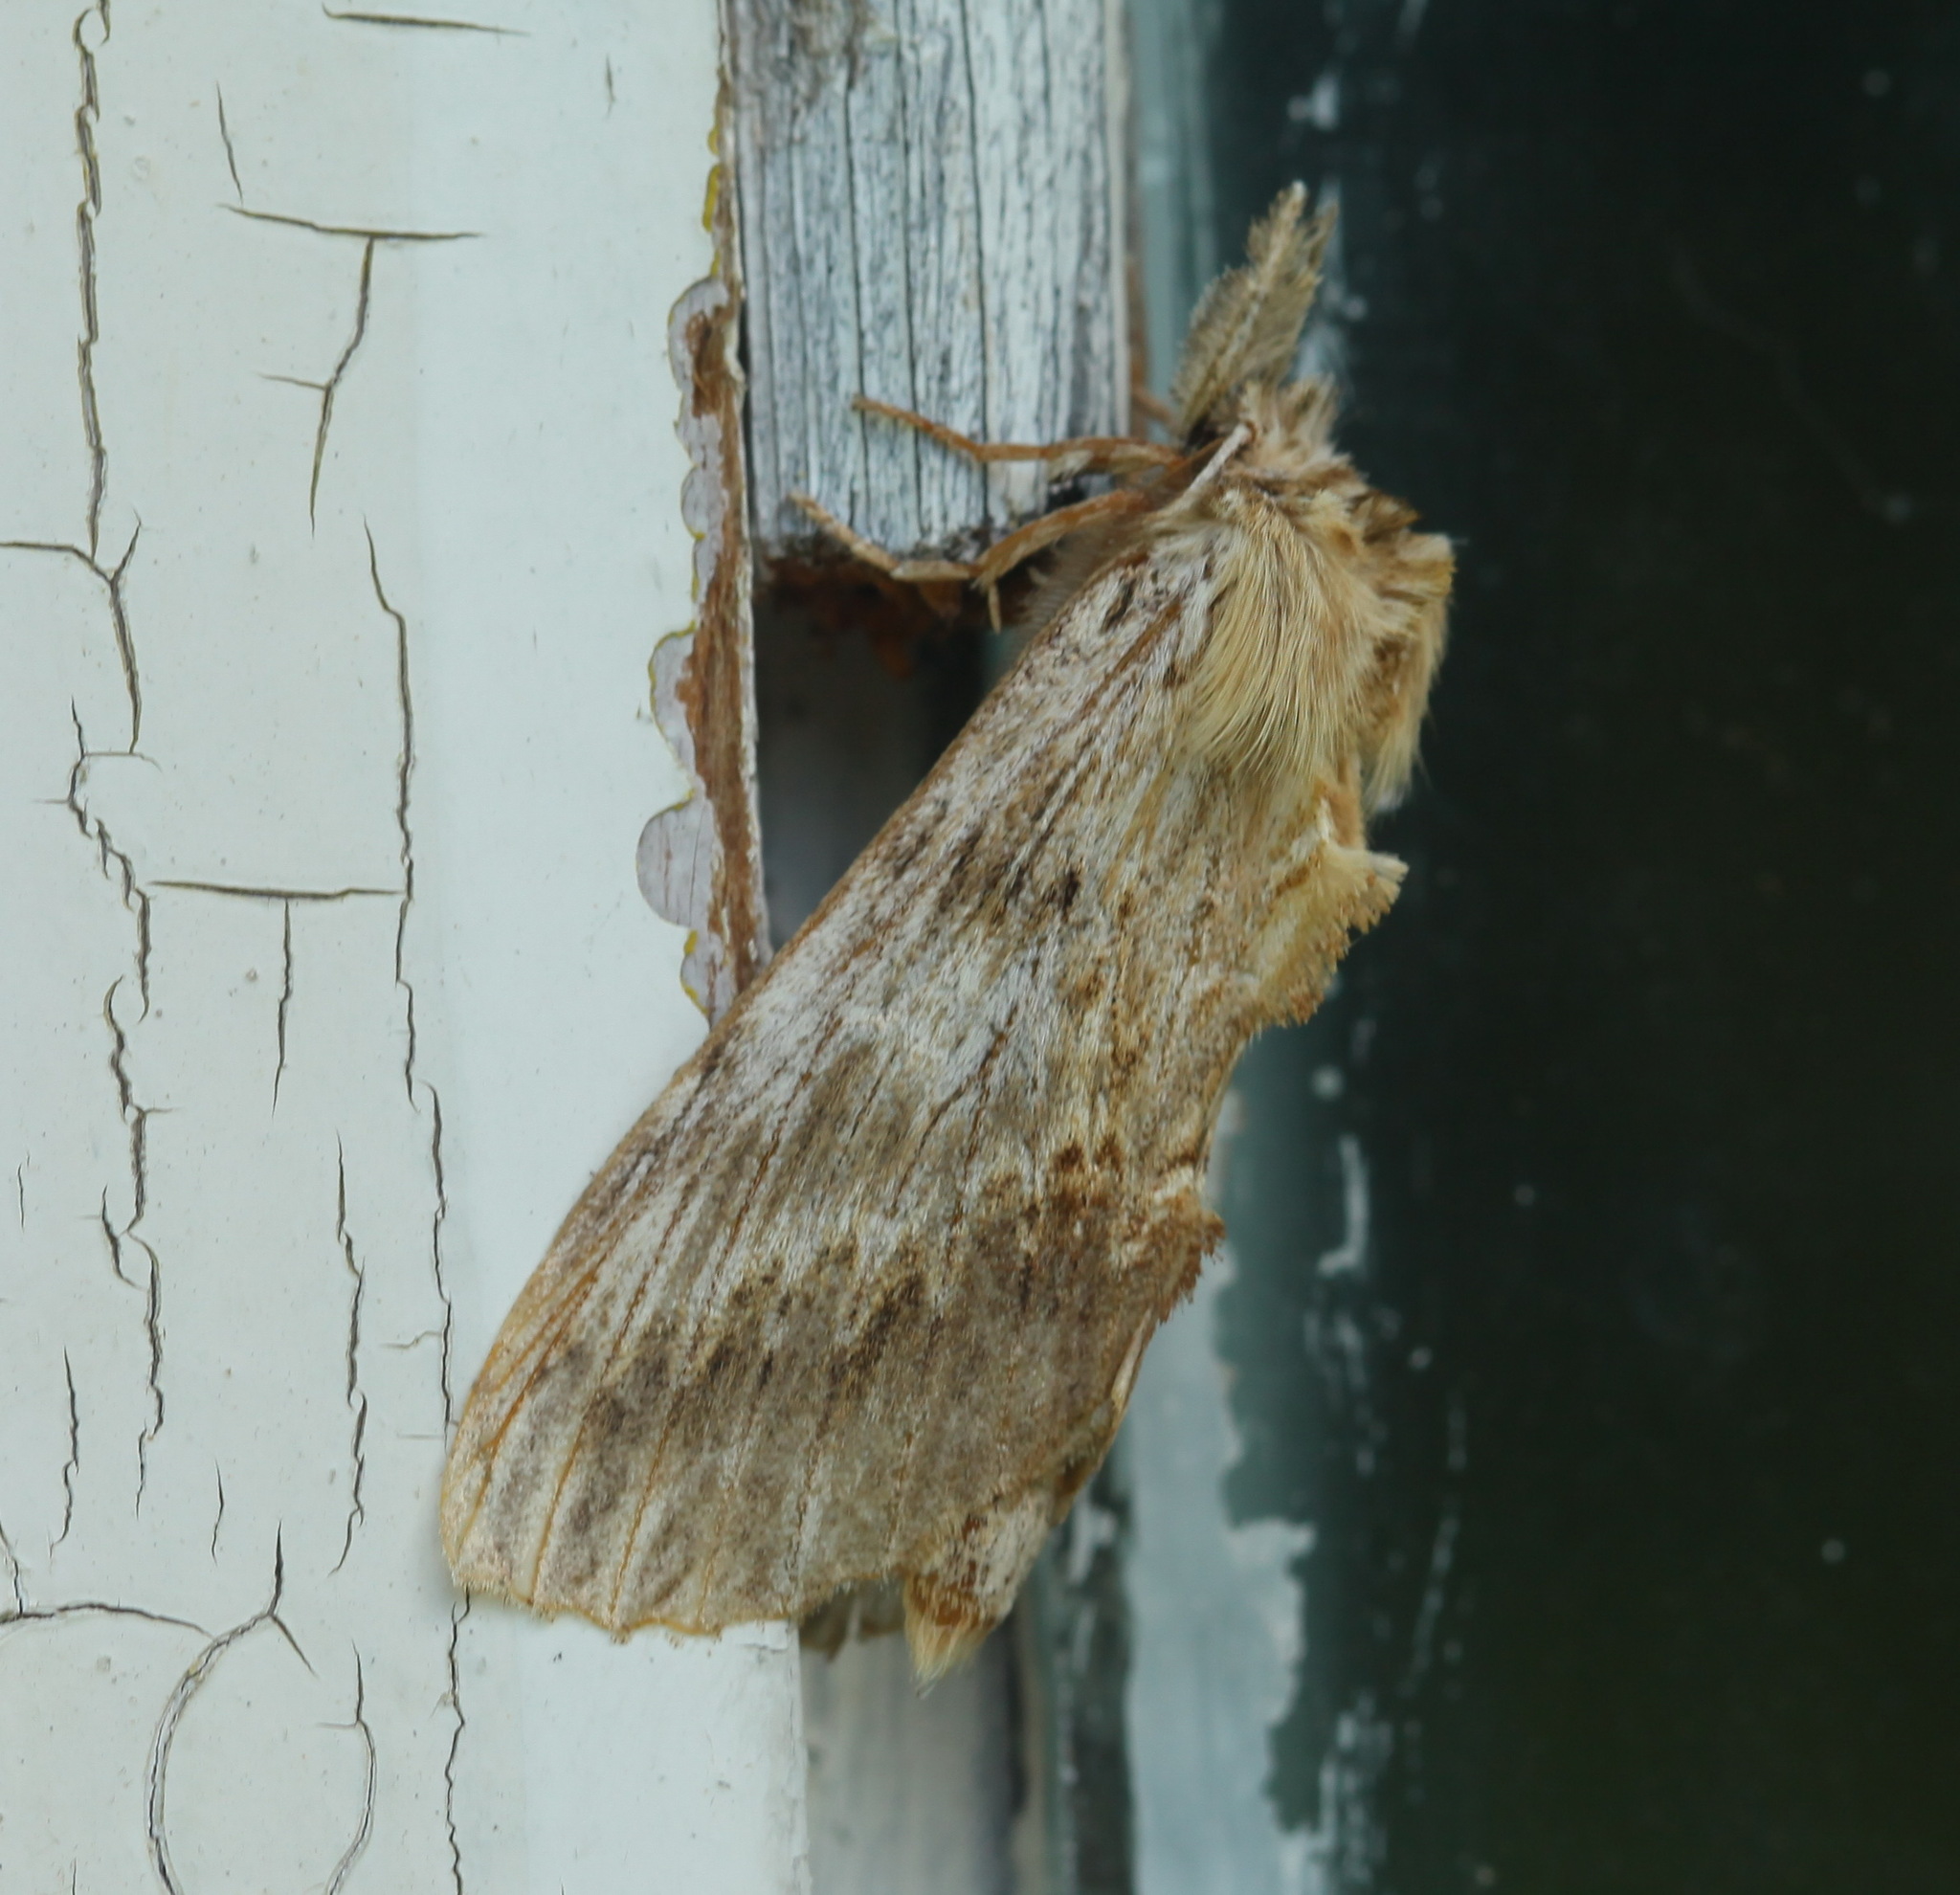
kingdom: Animalia
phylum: Arthropoda
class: Insecta
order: Lepidoptera
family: Notodontidae
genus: Pterostoma
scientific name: Pterostoma gigantina
